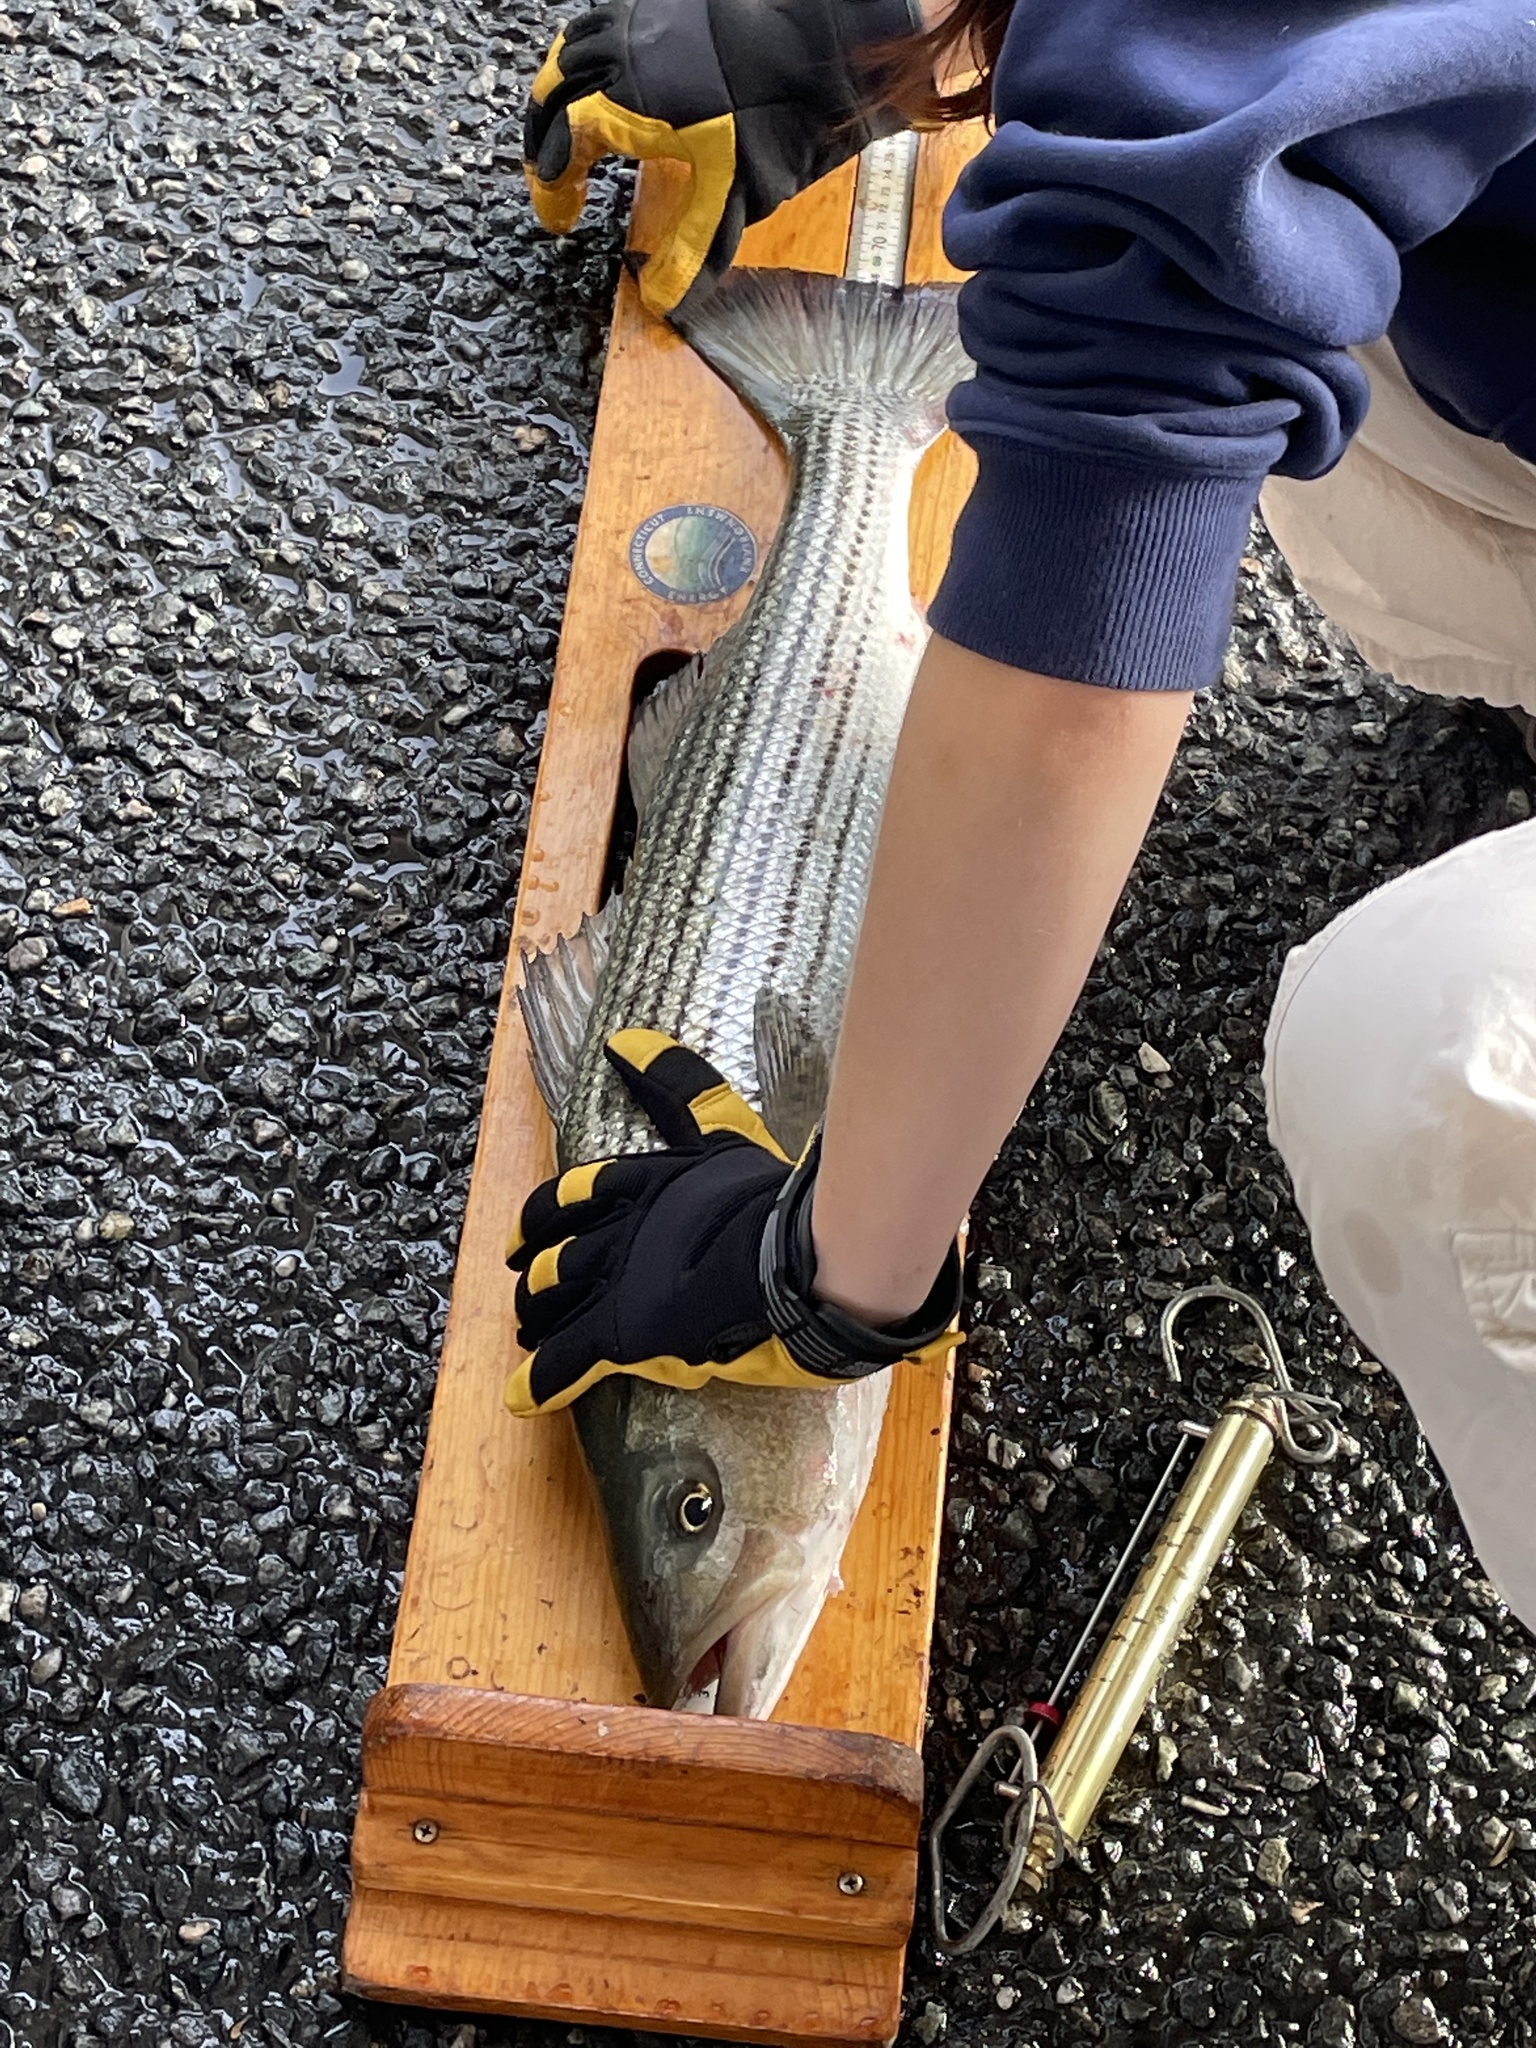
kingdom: Animalia
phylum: Chordata
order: Perciformes
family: Moronidae
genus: Morone
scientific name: Morone saxatilis
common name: Striped bass
